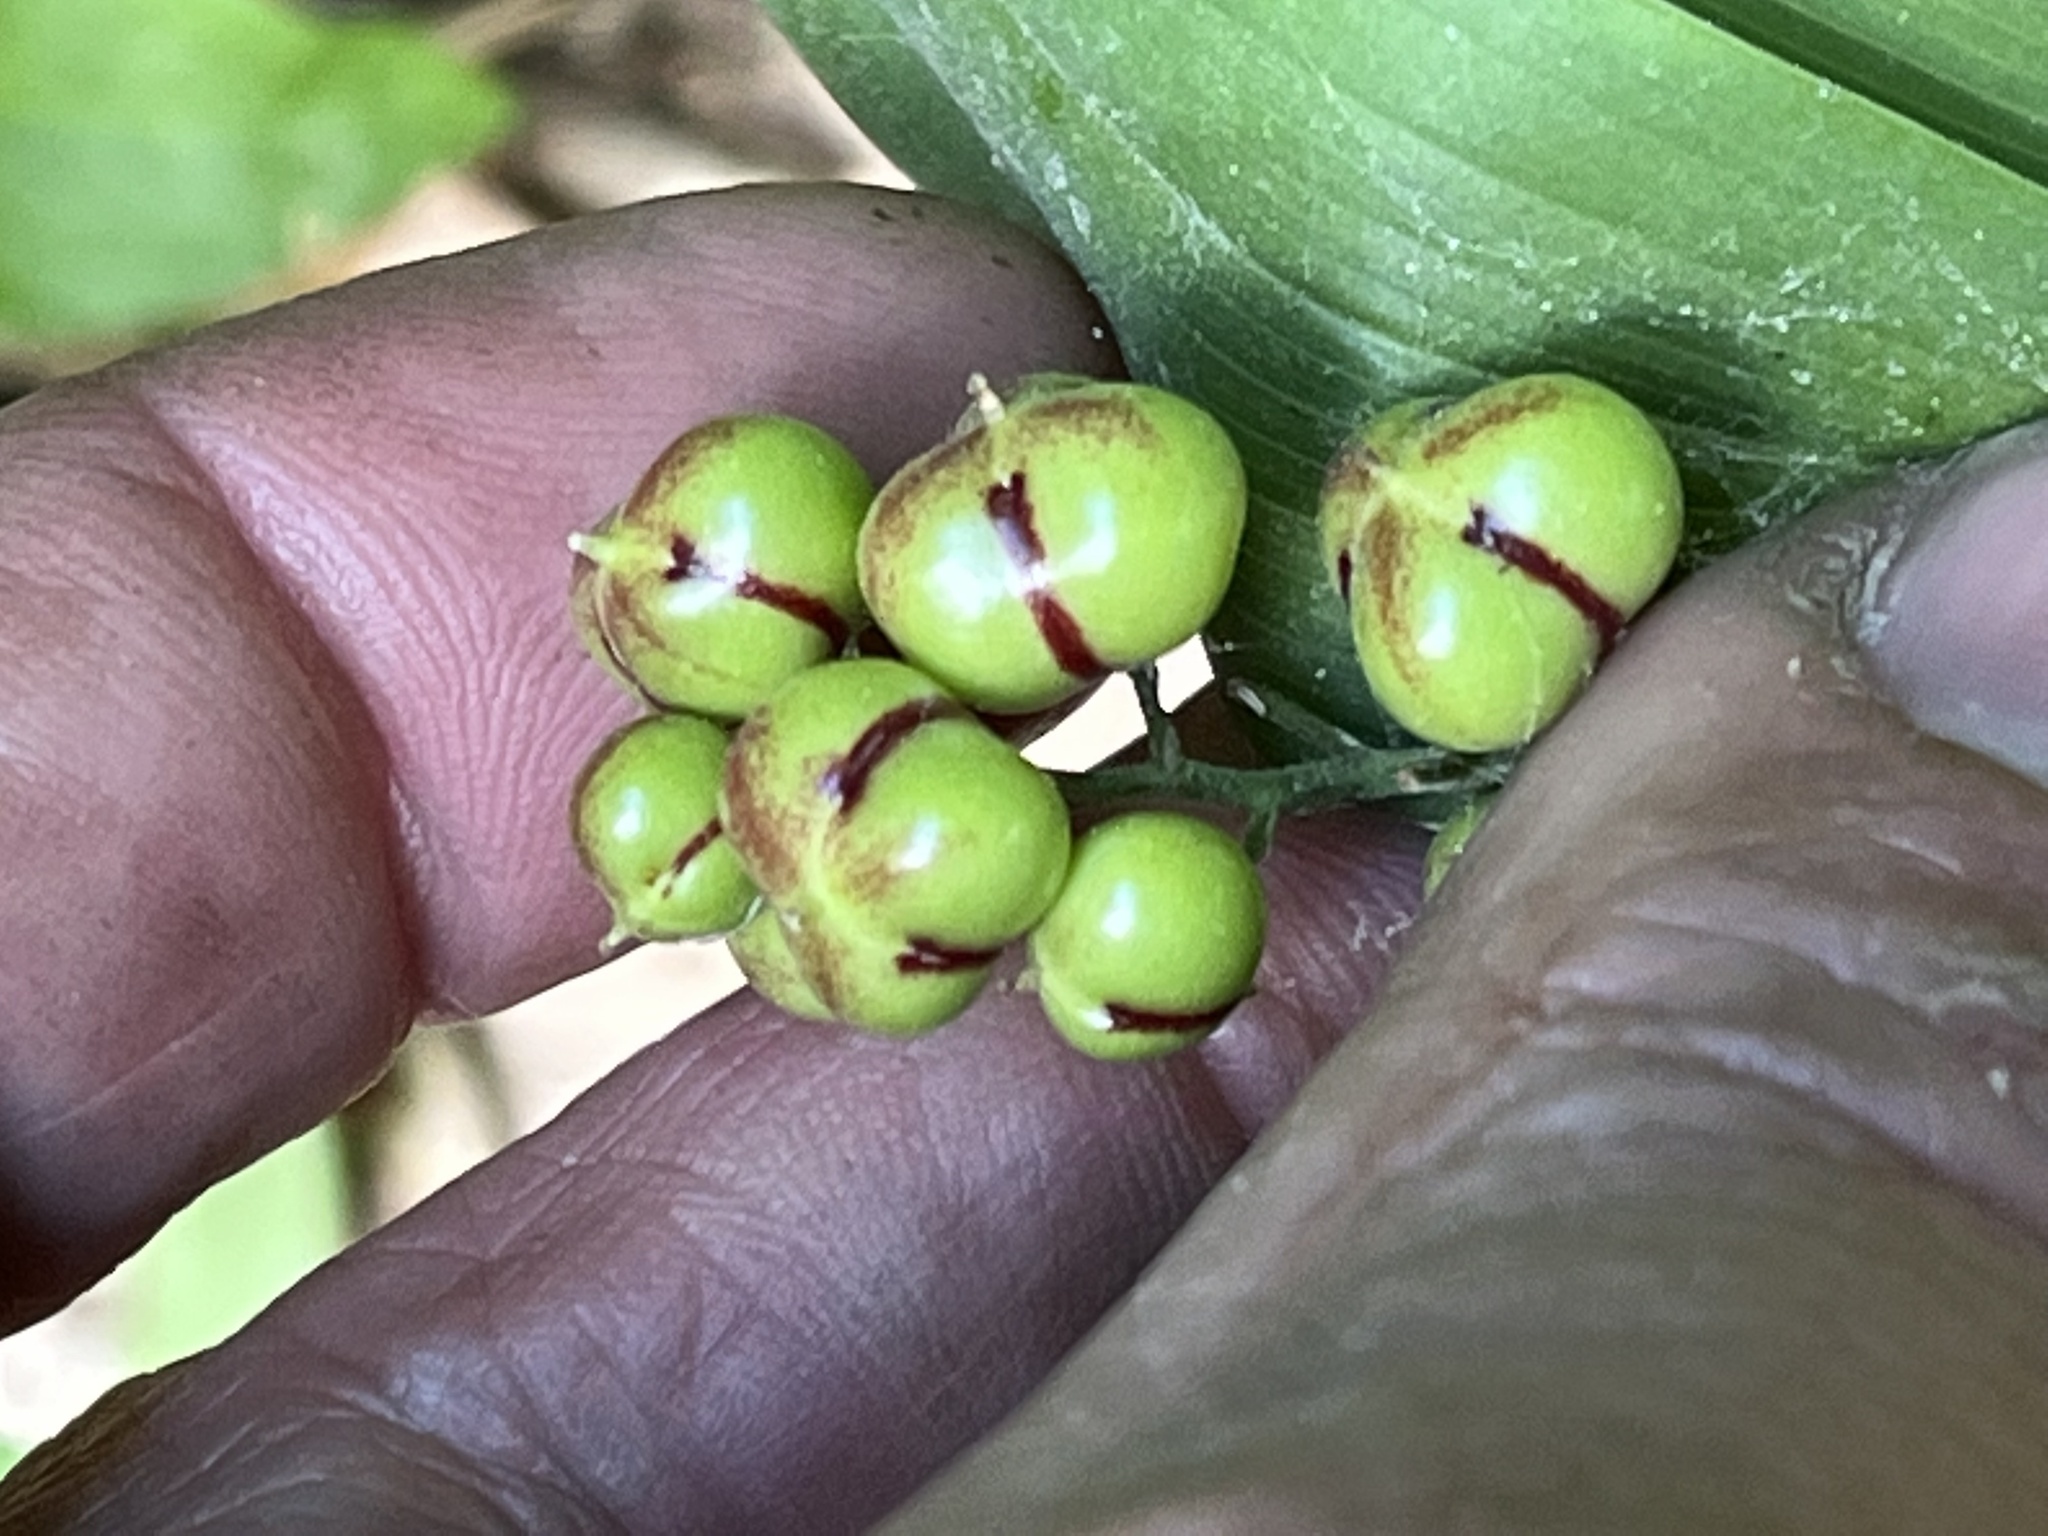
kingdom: Plantae
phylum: Tracheophyta
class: Liliopsida
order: Asparagales
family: Asparagaceae
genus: Maianthemum
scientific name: Maianthemum stellatum
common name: Little false solomon's seal
